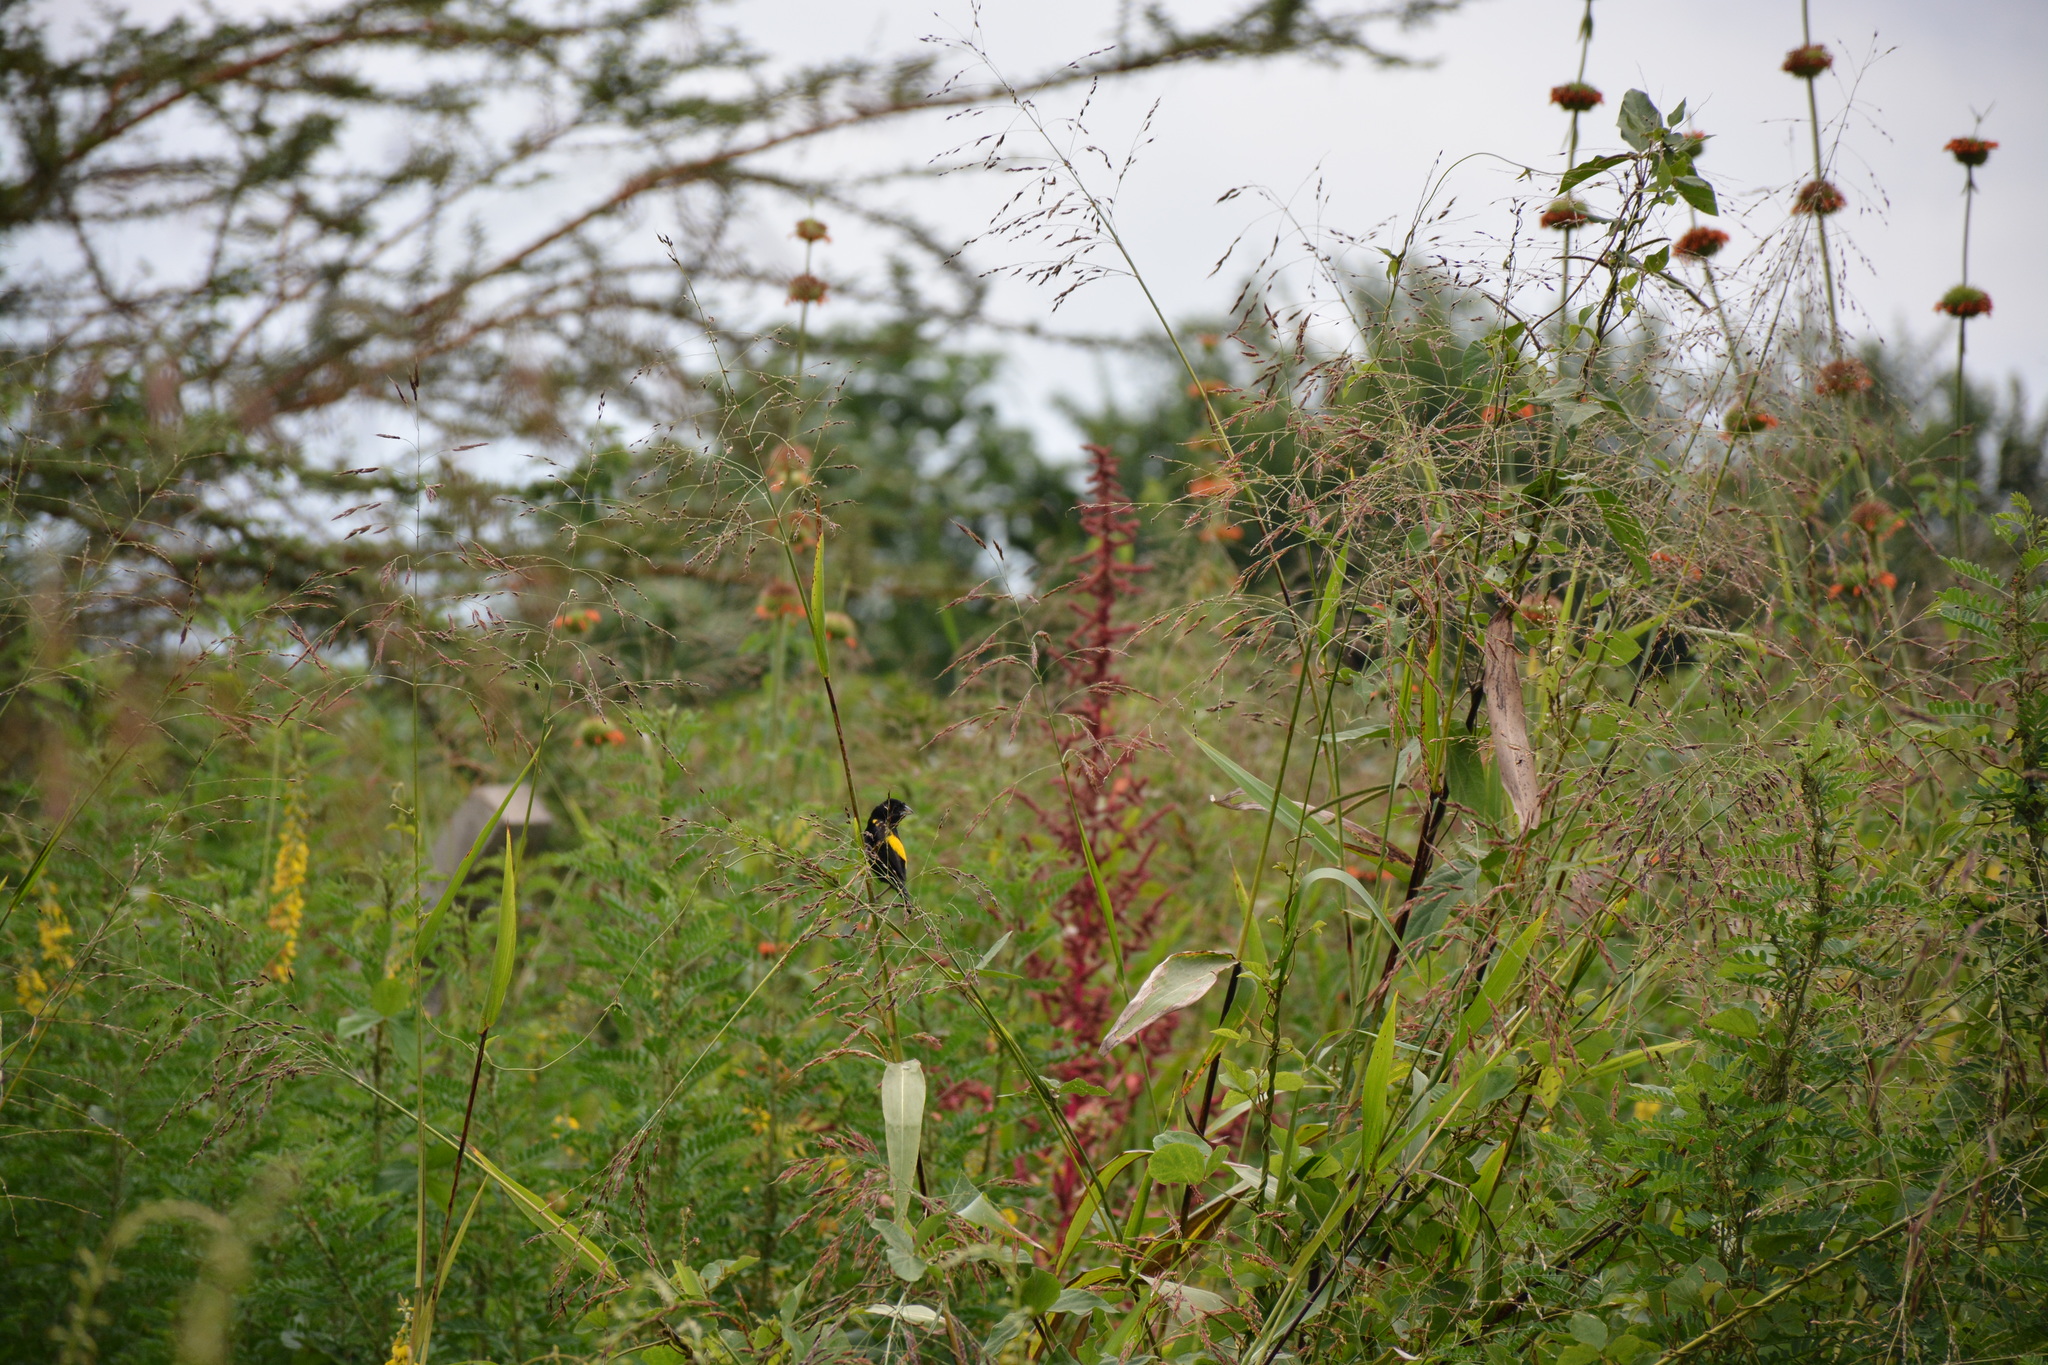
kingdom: Animalia
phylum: Chordata
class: Aves
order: Passeriformes
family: Ploceidae
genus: Euplectes
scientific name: Euplectes capensis
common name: Yellow bishop
